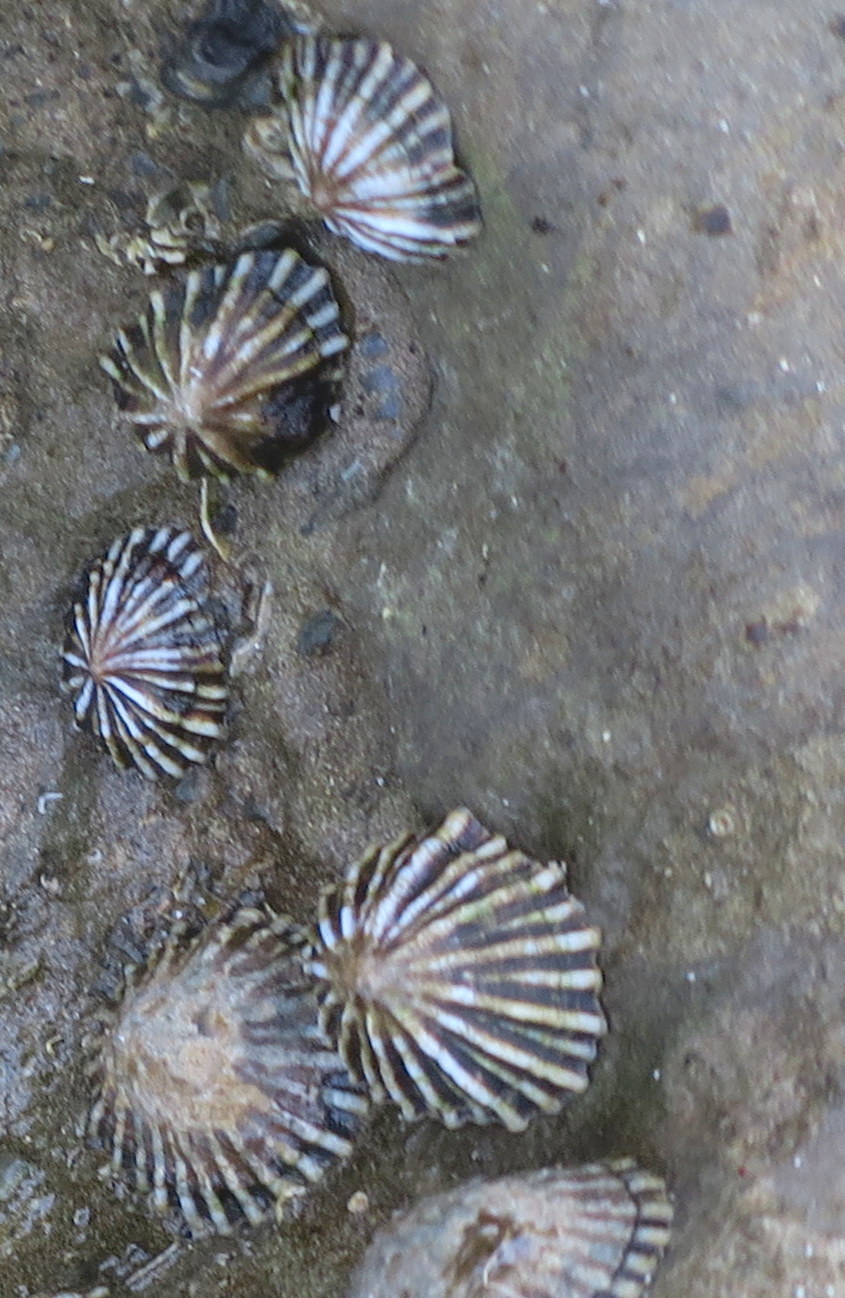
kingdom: Animalia
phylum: Mollusca
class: Gastropoda
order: Siphonariida
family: Siphonariidae
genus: Siphonaria
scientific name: Siphonaria diemenensis
